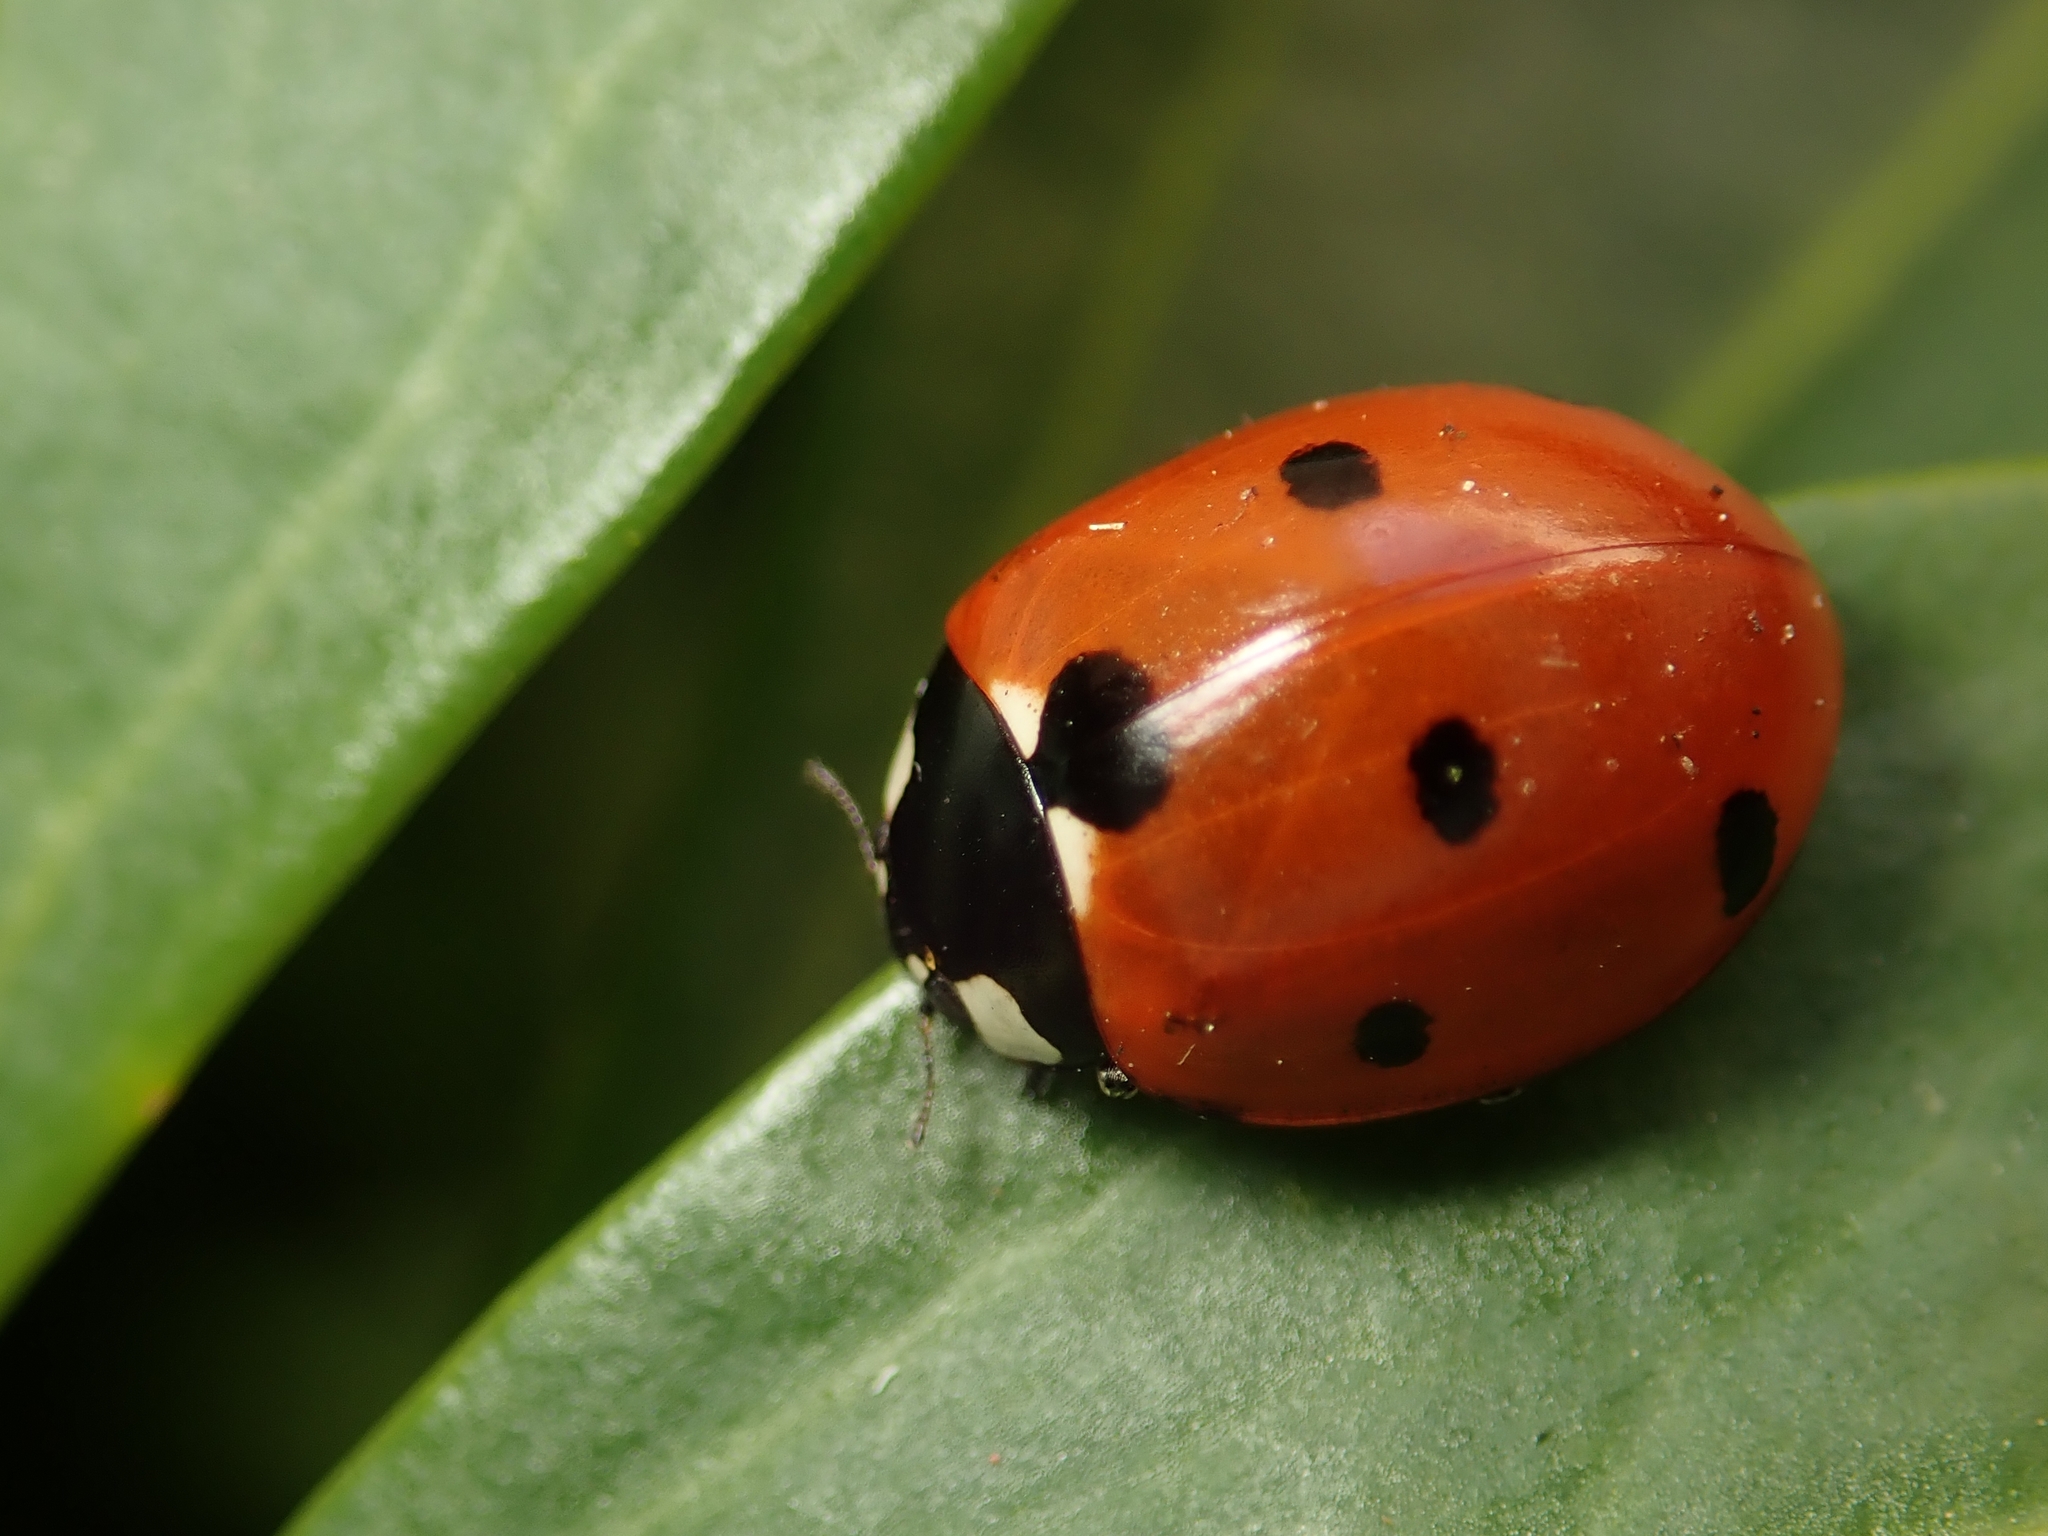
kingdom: Animalia
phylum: Arthropoda
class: Insecta
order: Coleoptera
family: Coccinellidae
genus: Coccinella
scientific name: Coccinella septempunctata
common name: Sevenspotted lady beetle
